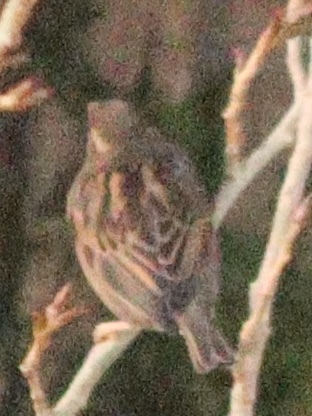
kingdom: Animalia
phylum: Chordata
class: Aves
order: Passeriformes
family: Passeridae
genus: Passer
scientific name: Passer domesticus
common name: House sparrow
